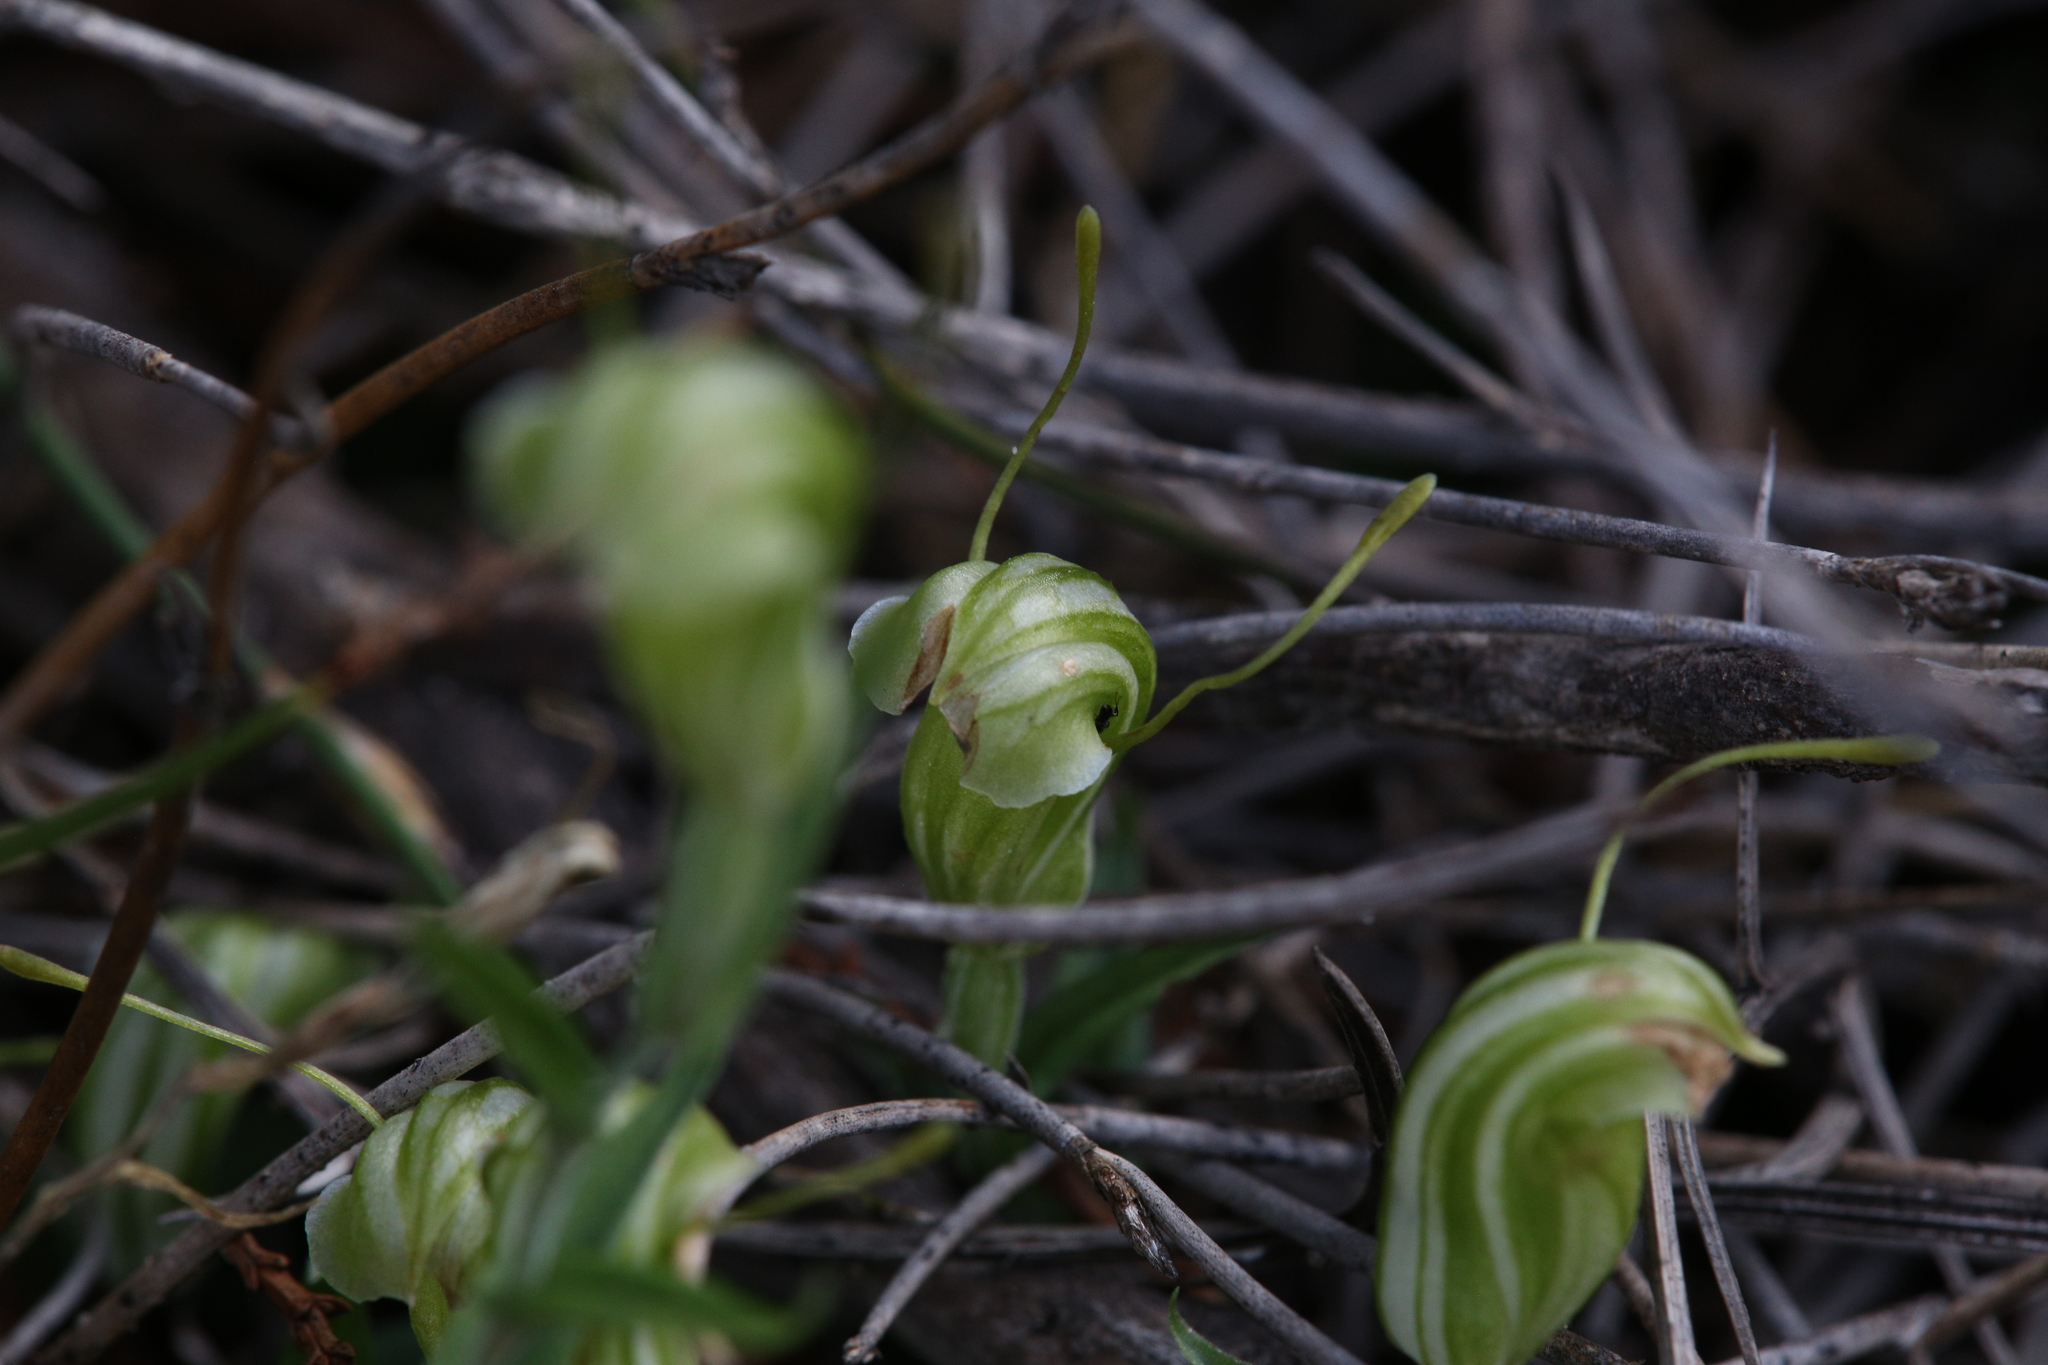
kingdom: Plantae
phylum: Tracheophyta
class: Liliopsida
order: Asparagales
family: Orchidaceae
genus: Pterostylis
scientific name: Pterostylis dilatata
